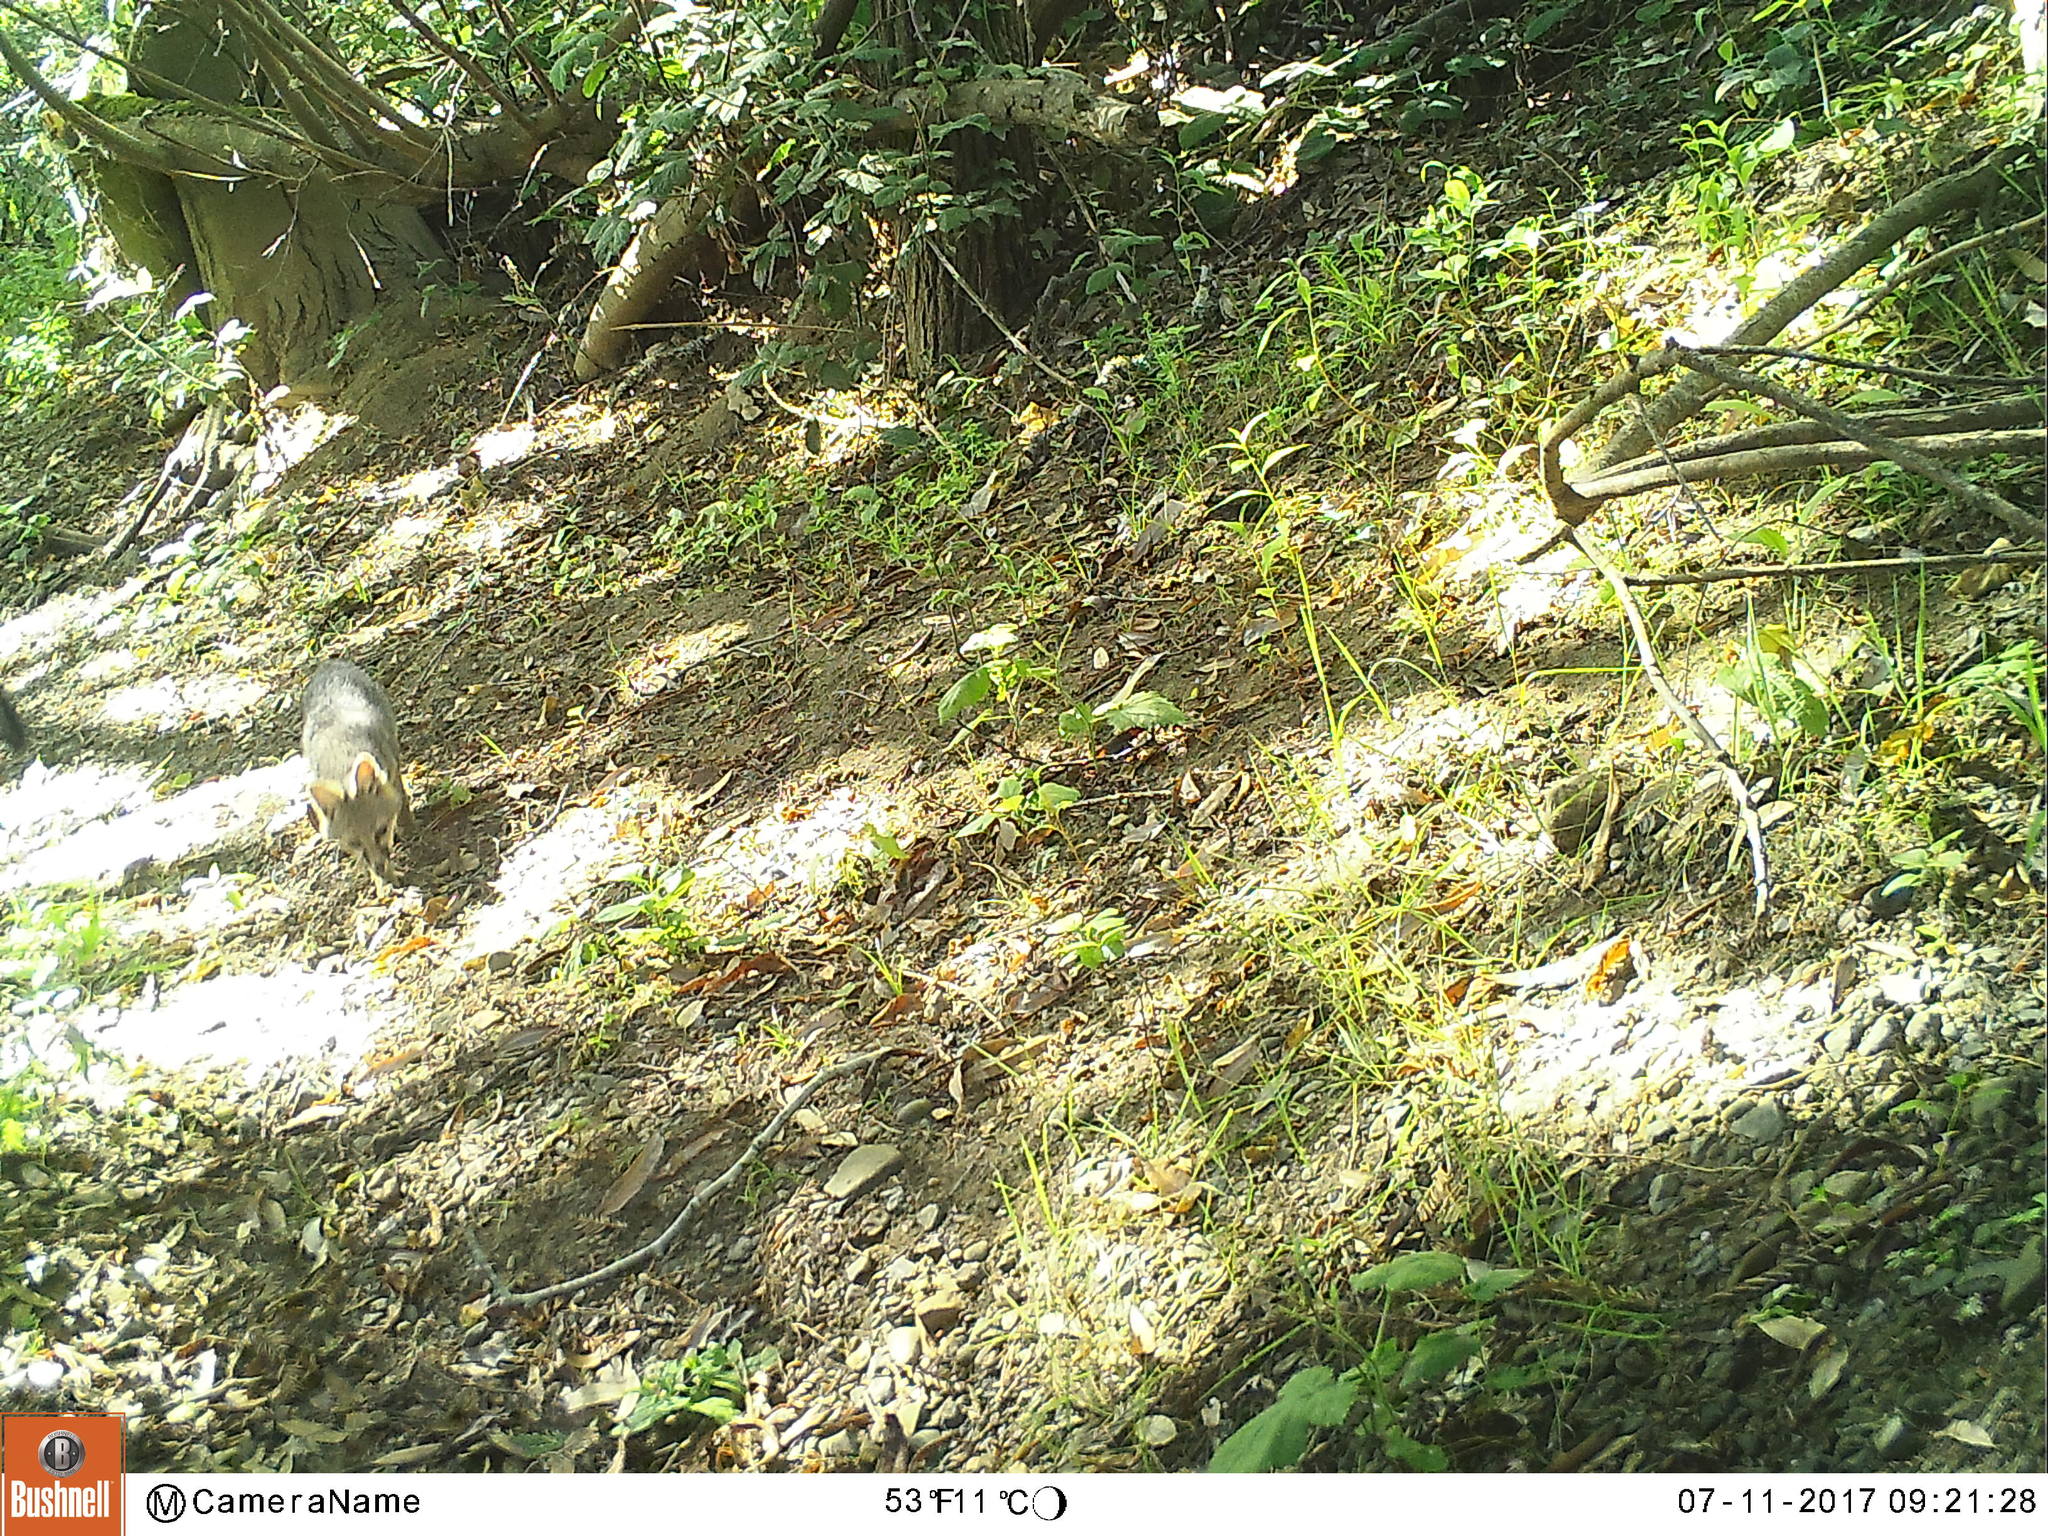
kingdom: Animalia
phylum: Chordata
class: Mammalia
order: Carnivora
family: Canidae
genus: Urocyon
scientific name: Urocyon cinereoargenteus
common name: Gray fox
